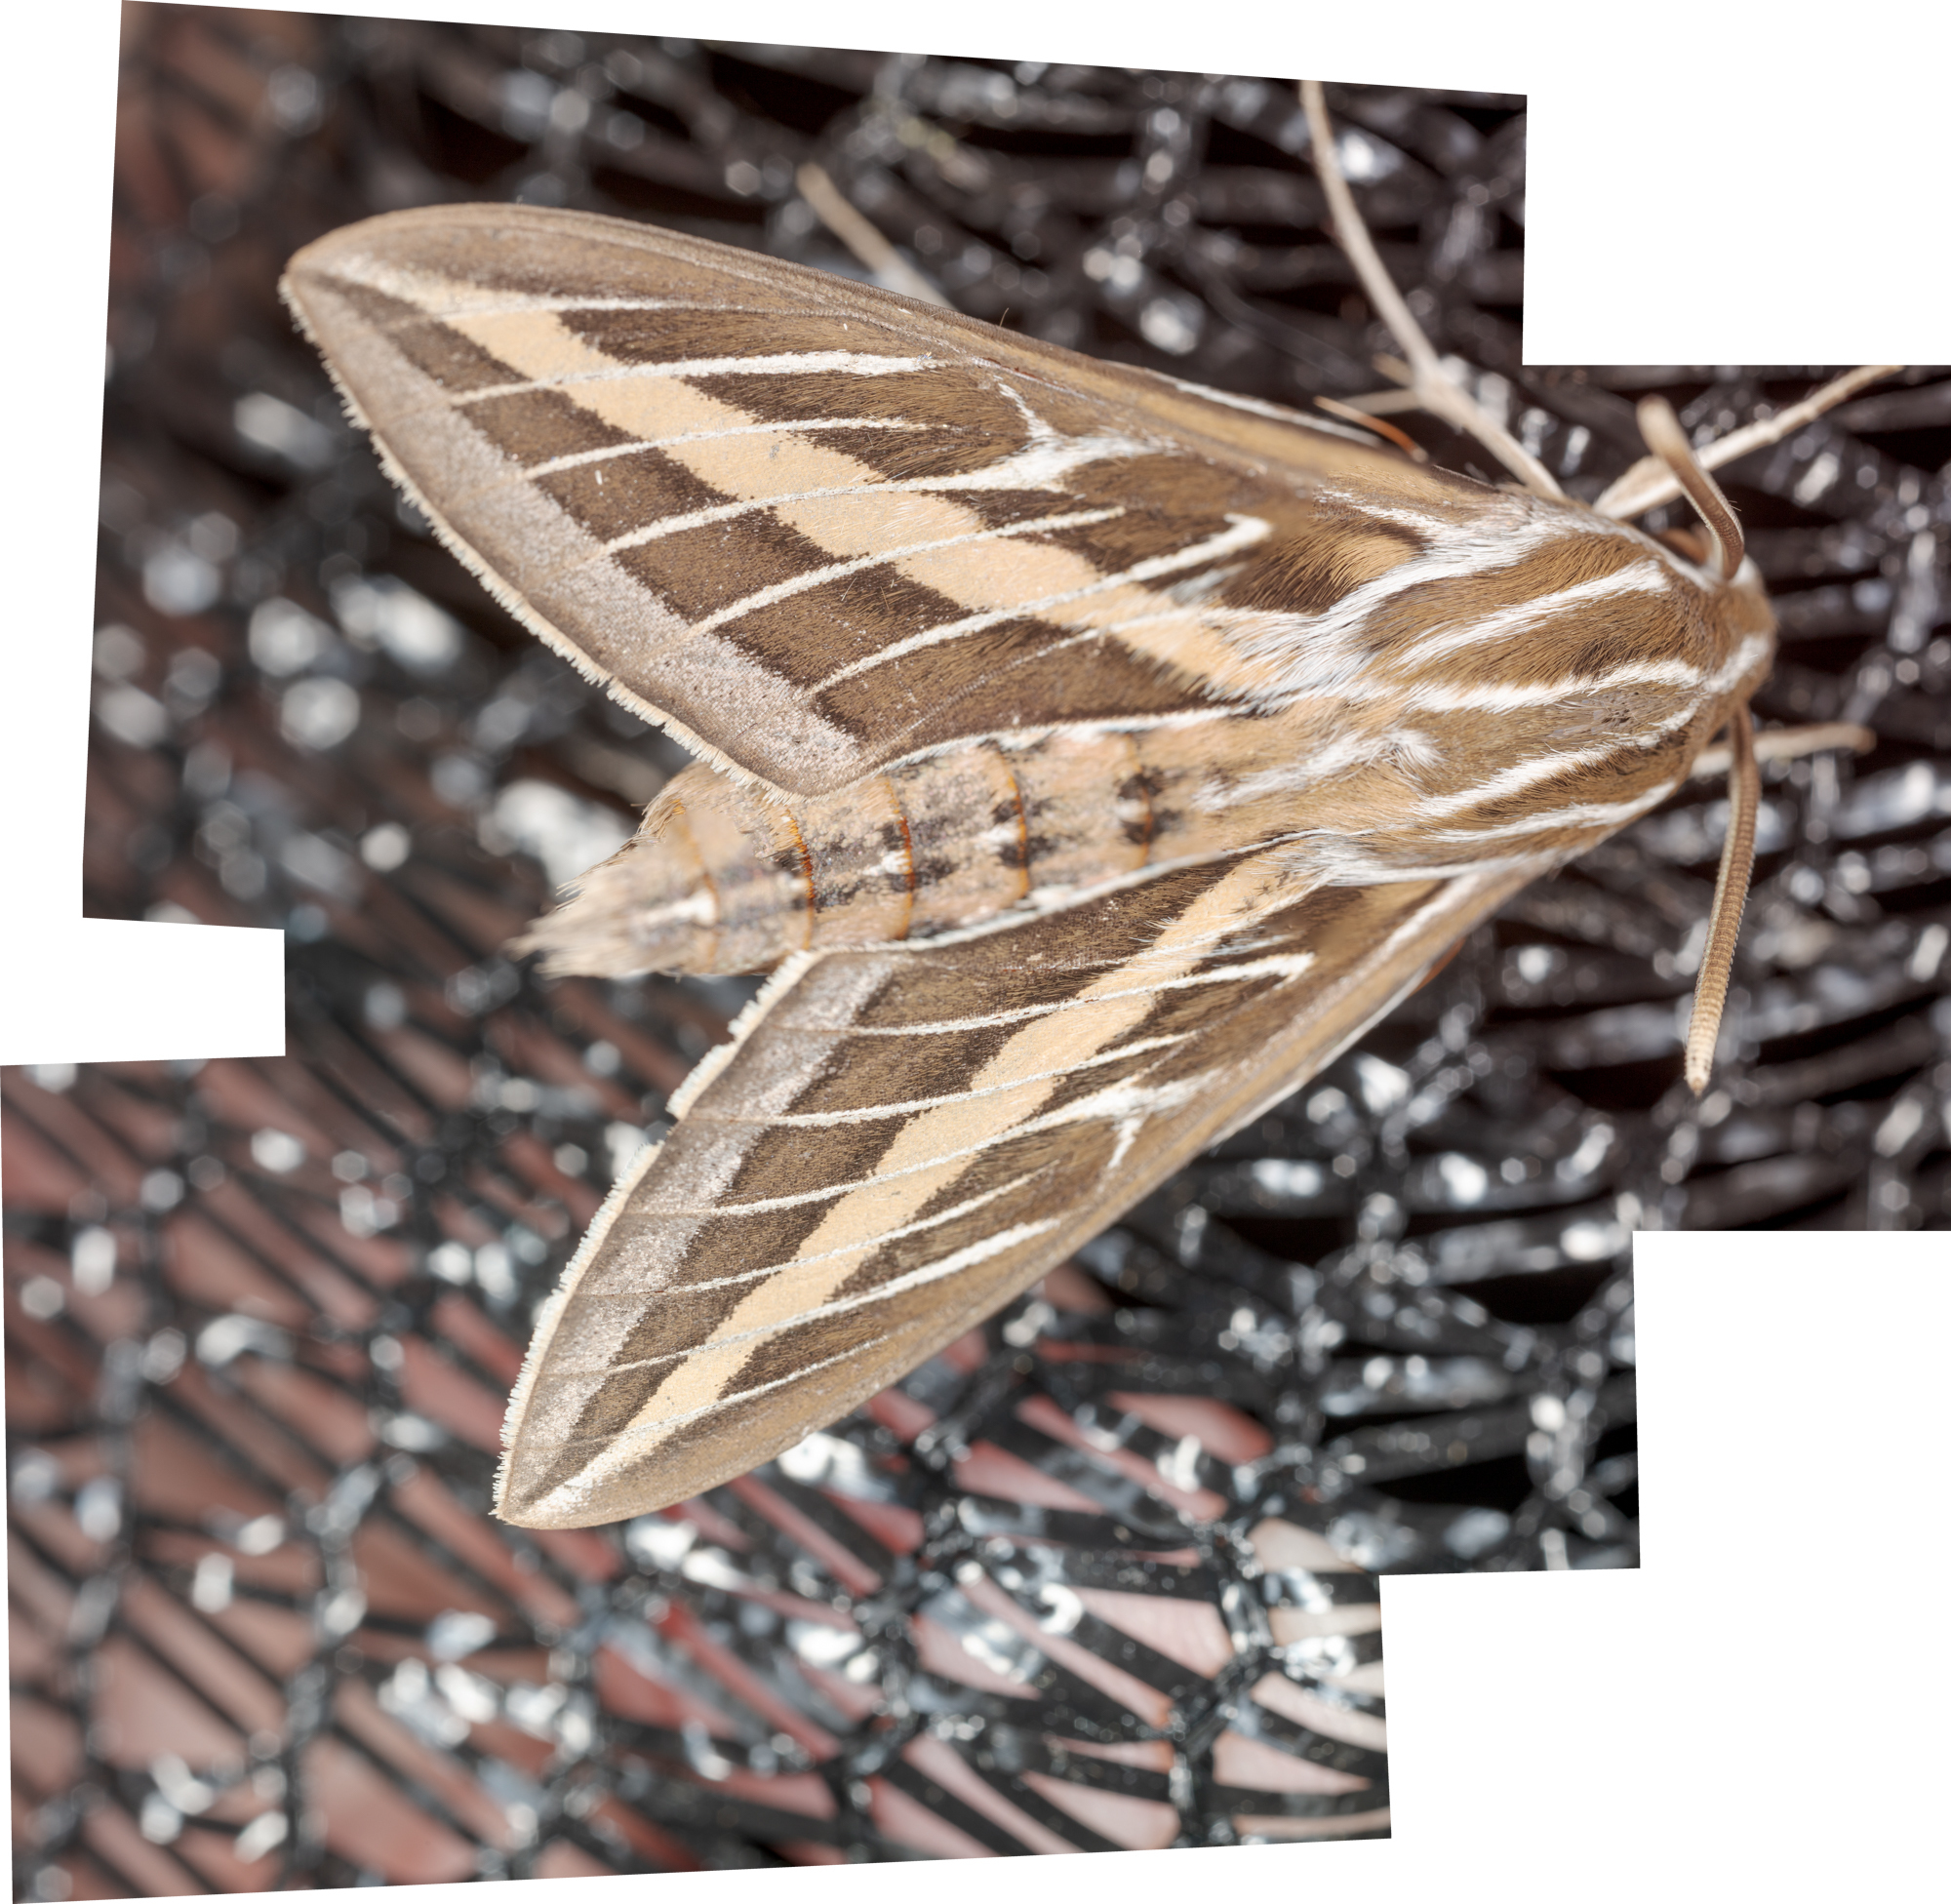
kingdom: Animalia
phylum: Arthropoda
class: Insecta
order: Lepidoptera
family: Sphingidae
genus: Hyles
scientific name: Hyles lineata
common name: White-lined sphinx
